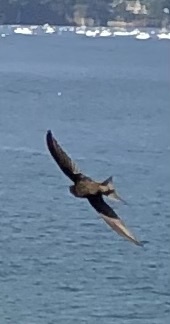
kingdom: Animalia
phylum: Chordata
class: Aves
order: Apodiformes
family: Apodidae
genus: Apus
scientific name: Apus apus
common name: Common swift
